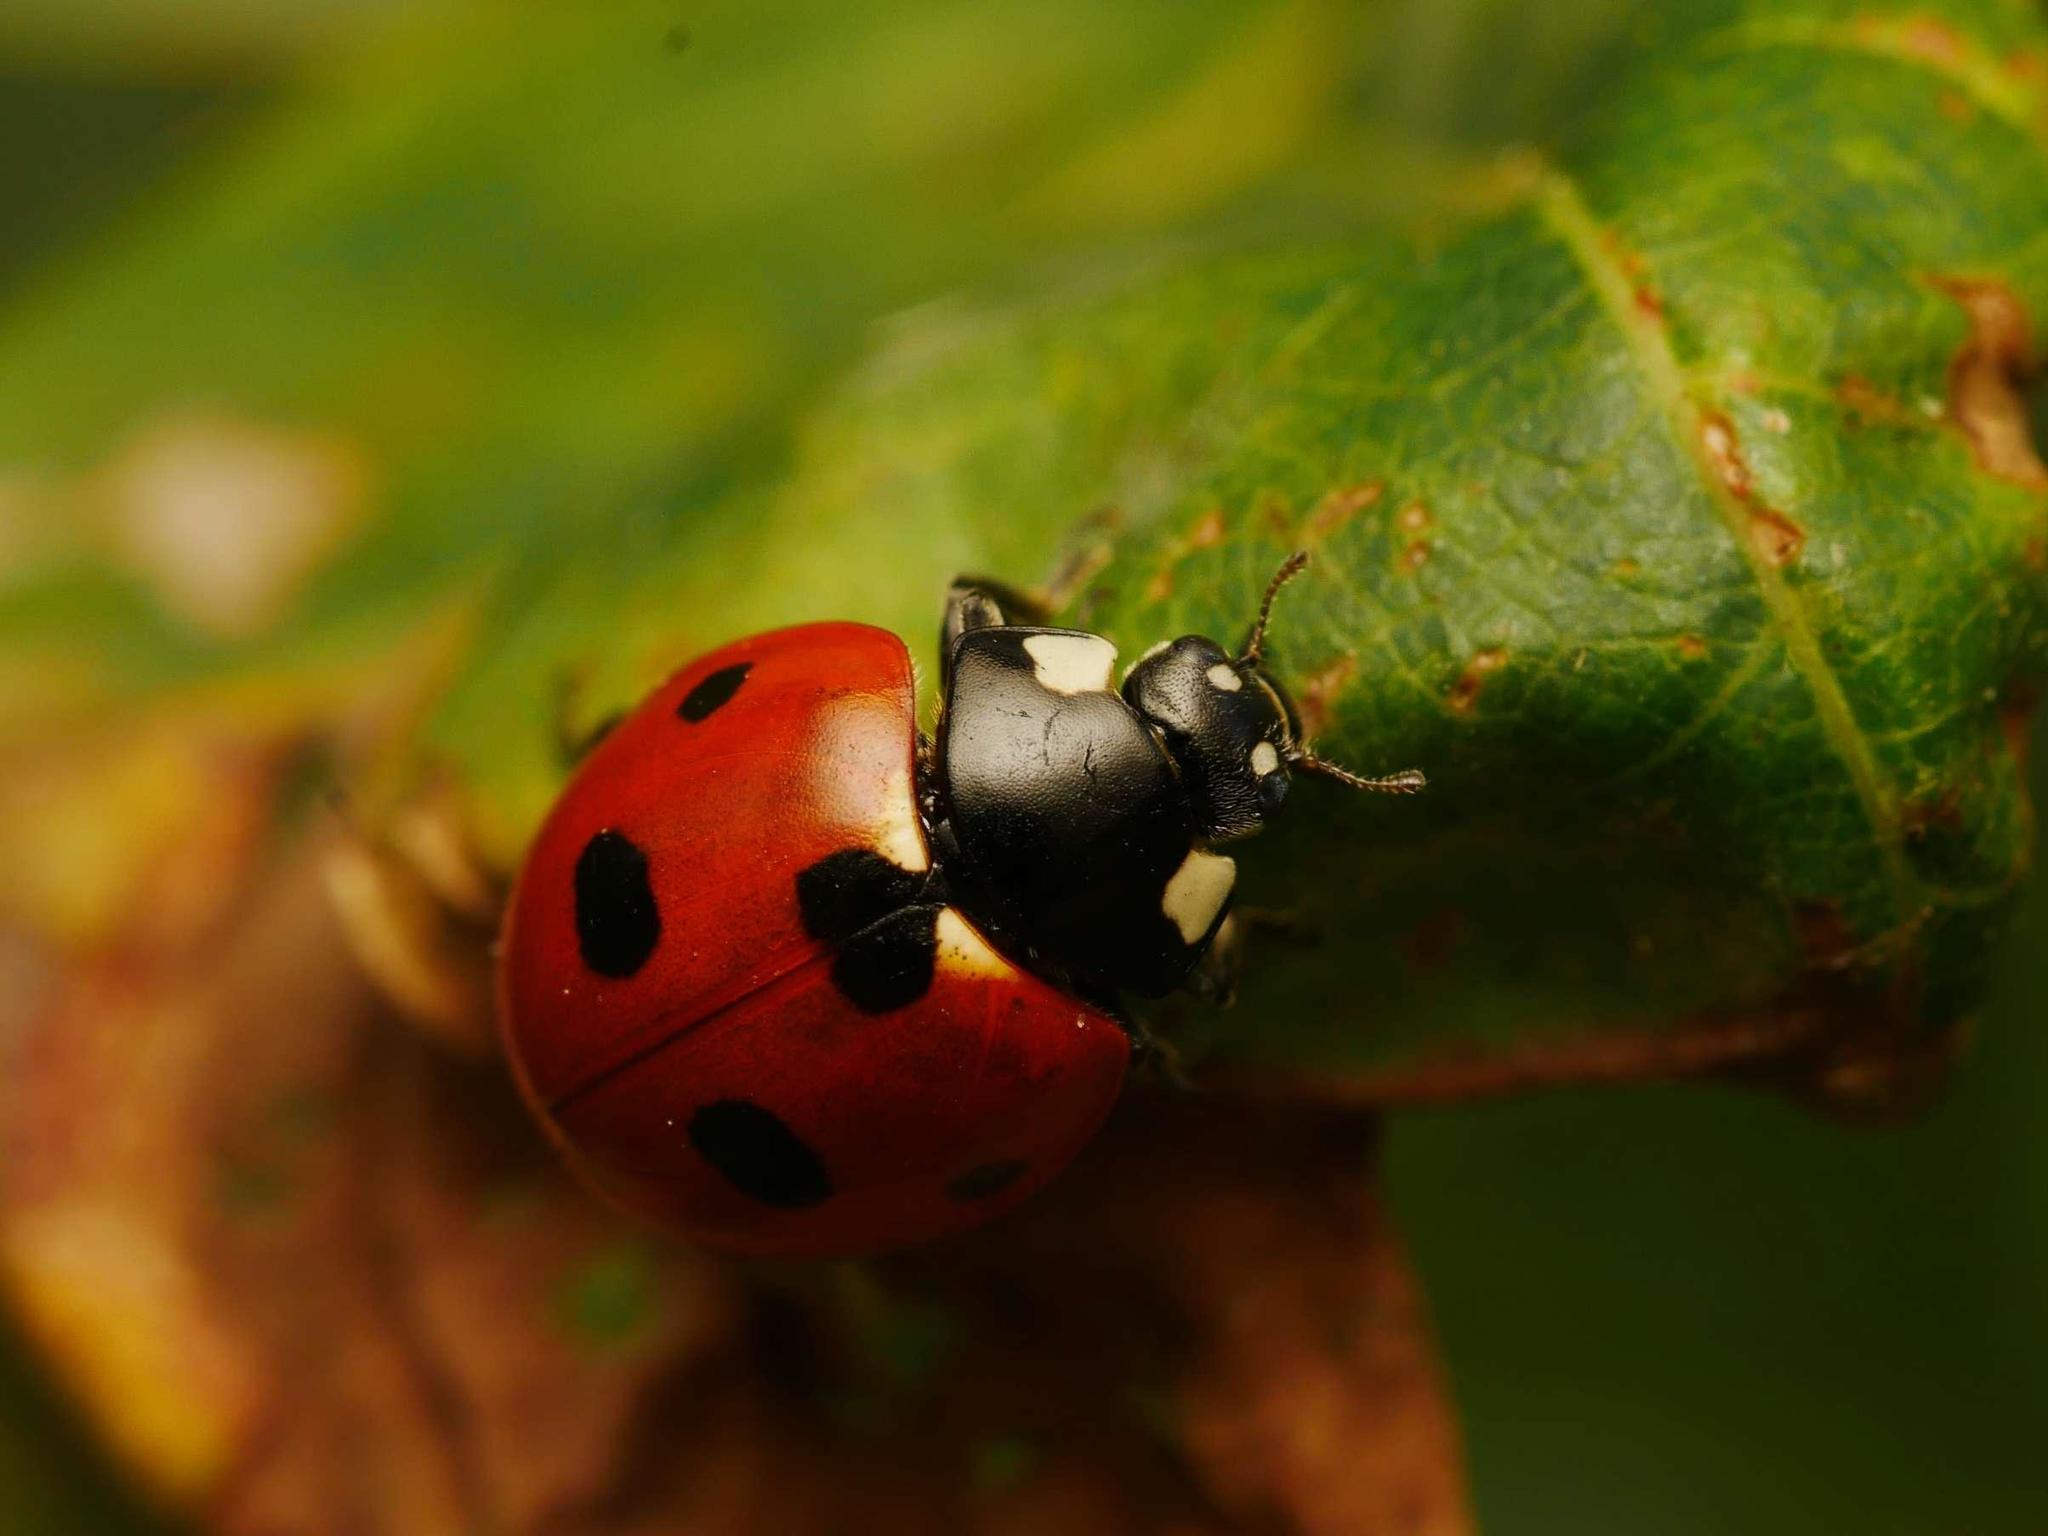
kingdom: Animalia
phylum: Arthropoda
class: Insecta
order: Coleoptera
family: Coccinellidae
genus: Coccinella
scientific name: Coccinella septempunctata
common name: Sevenspotted lady beetle
